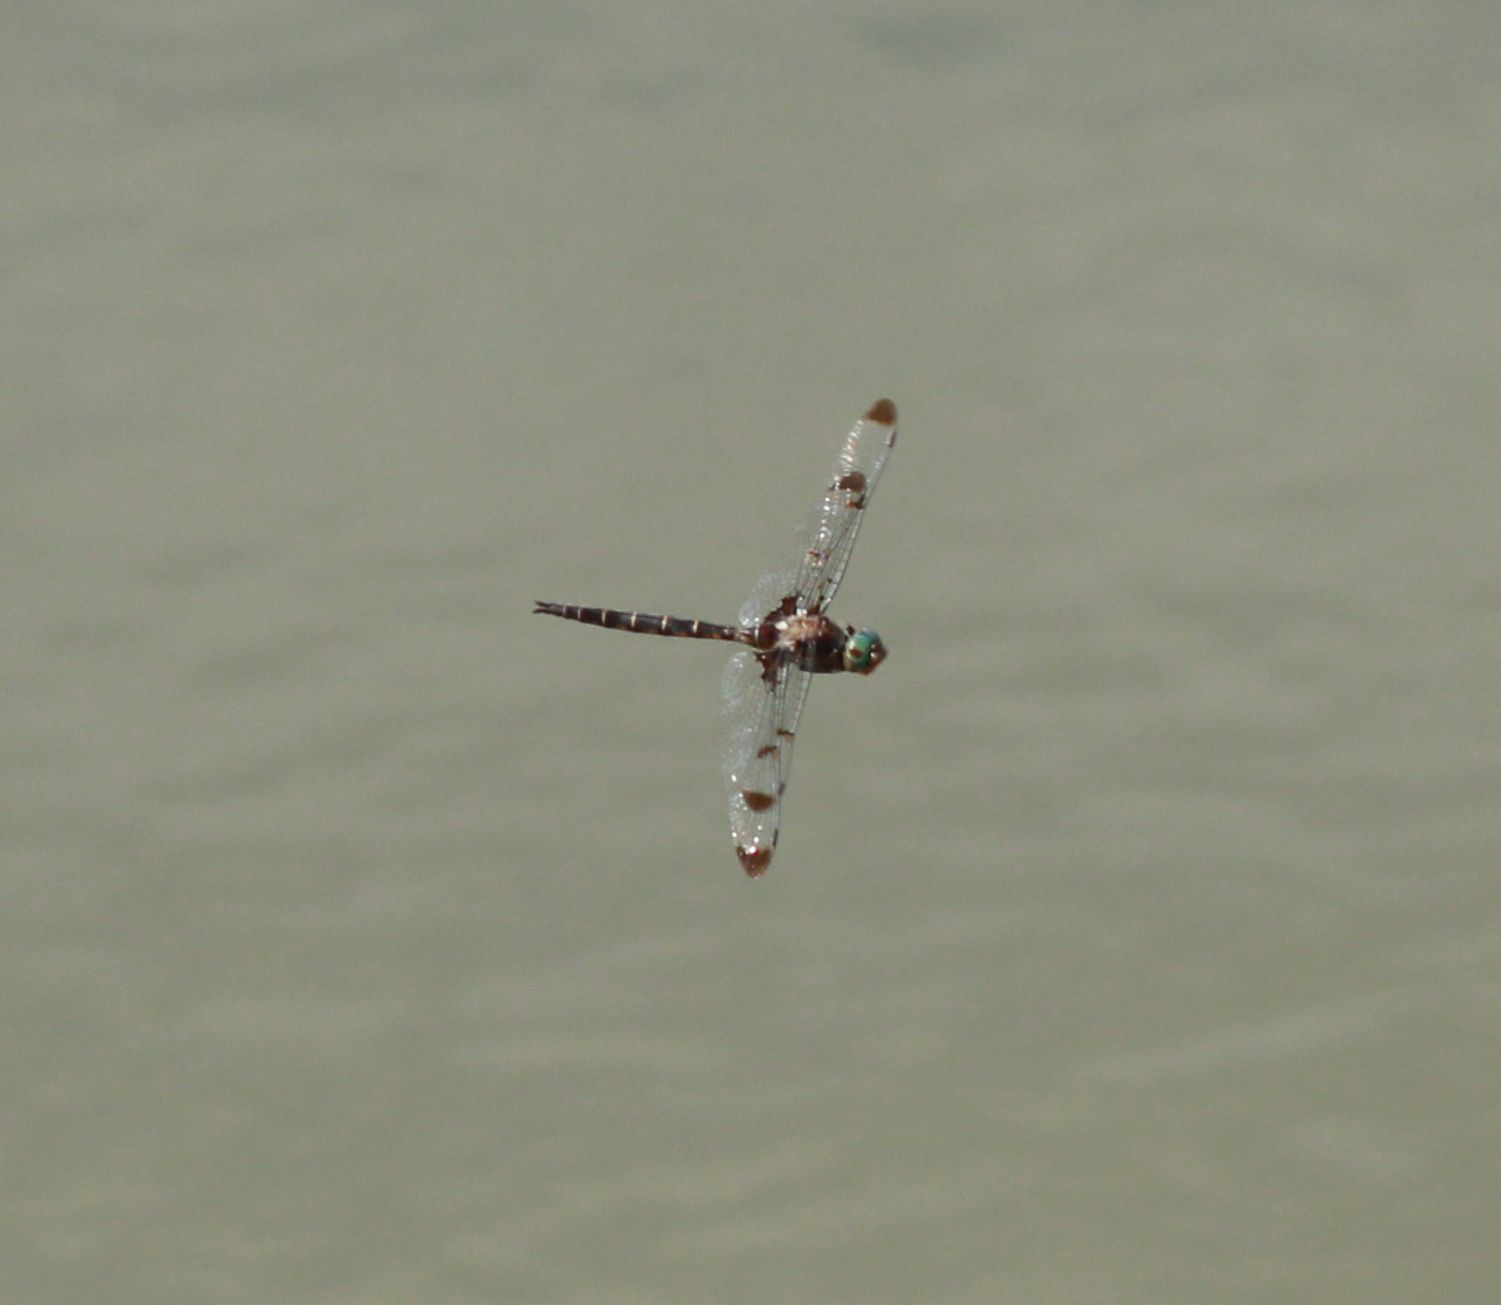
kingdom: Animalia
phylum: Arthropoda
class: Insecta
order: Odonata
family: Corduliidae
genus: Epitheca
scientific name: Epitheca princeps
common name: Prince baskettail
